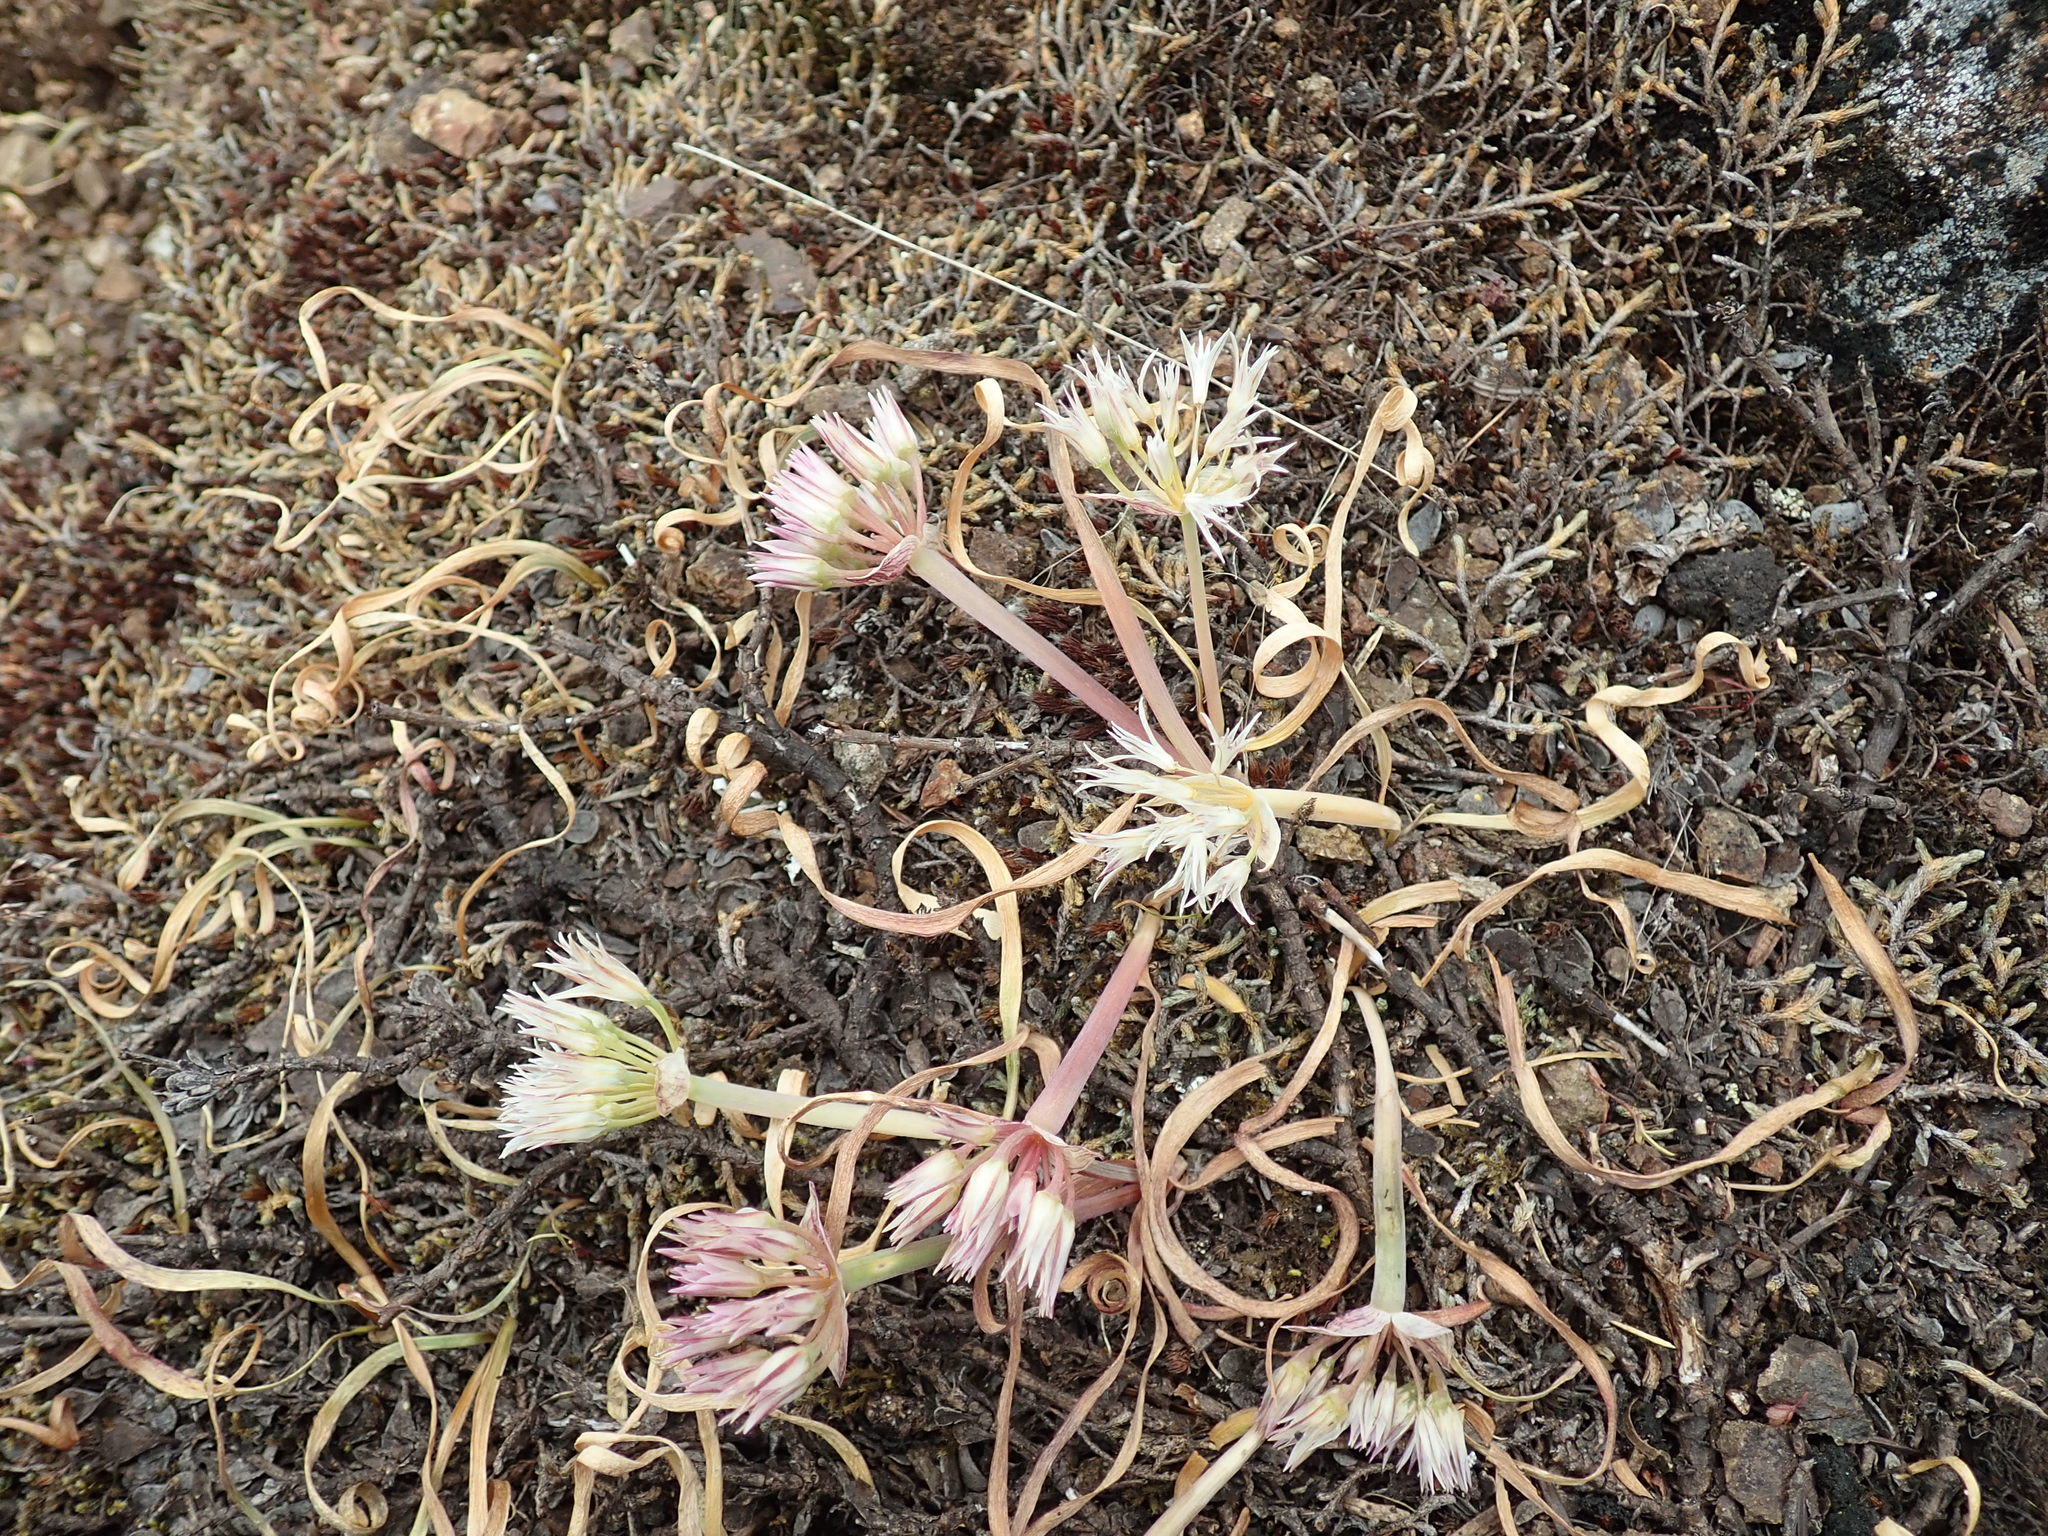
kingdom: Plantae
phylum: Tracheophyta
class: Liliopsida
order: Asparagales
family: Amaryllidaceae
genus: Allium
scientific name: Allium crenulatum
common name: Olympic onion
